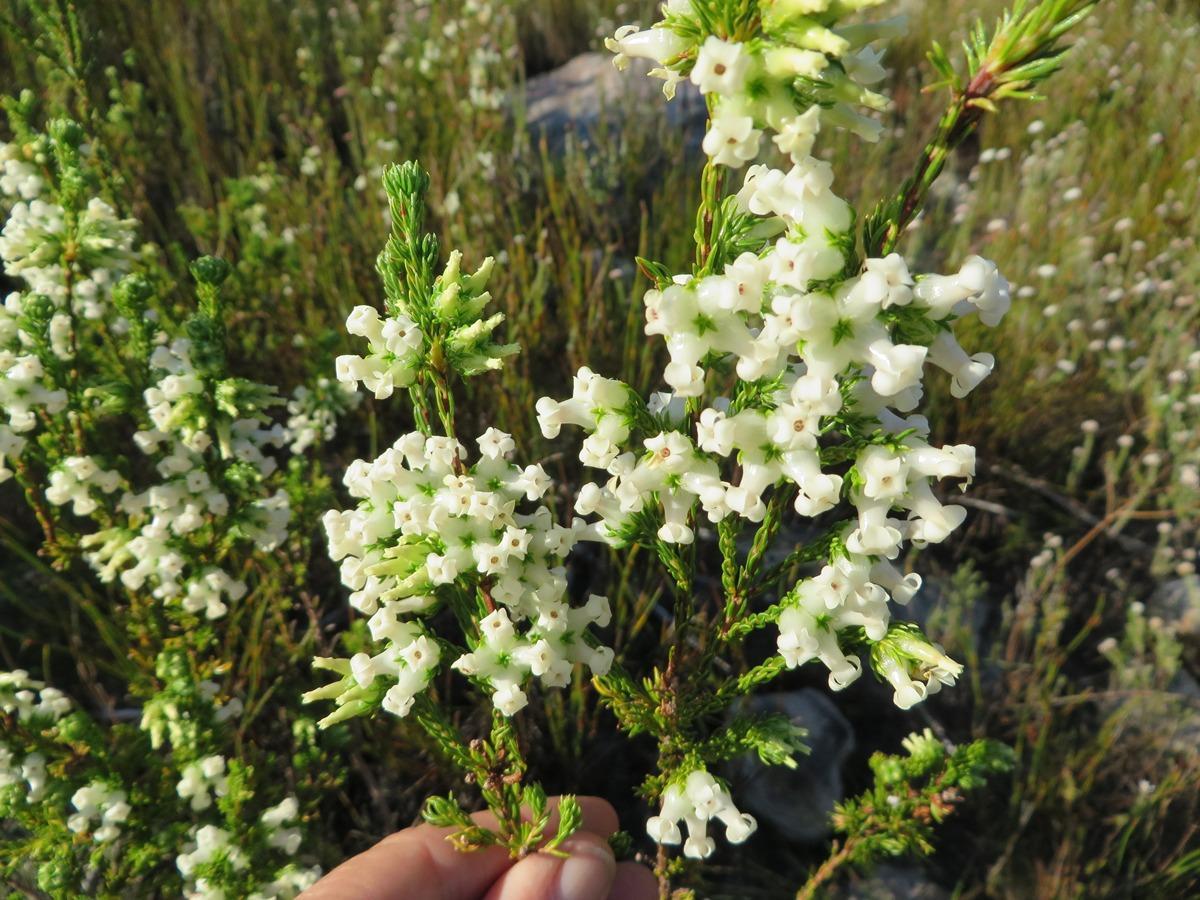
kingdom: Plantae
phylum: Tracheophyta
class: Magnoliopsida
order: Ericales
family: Ericaceae
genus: Erica
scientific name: Erica denticulata
